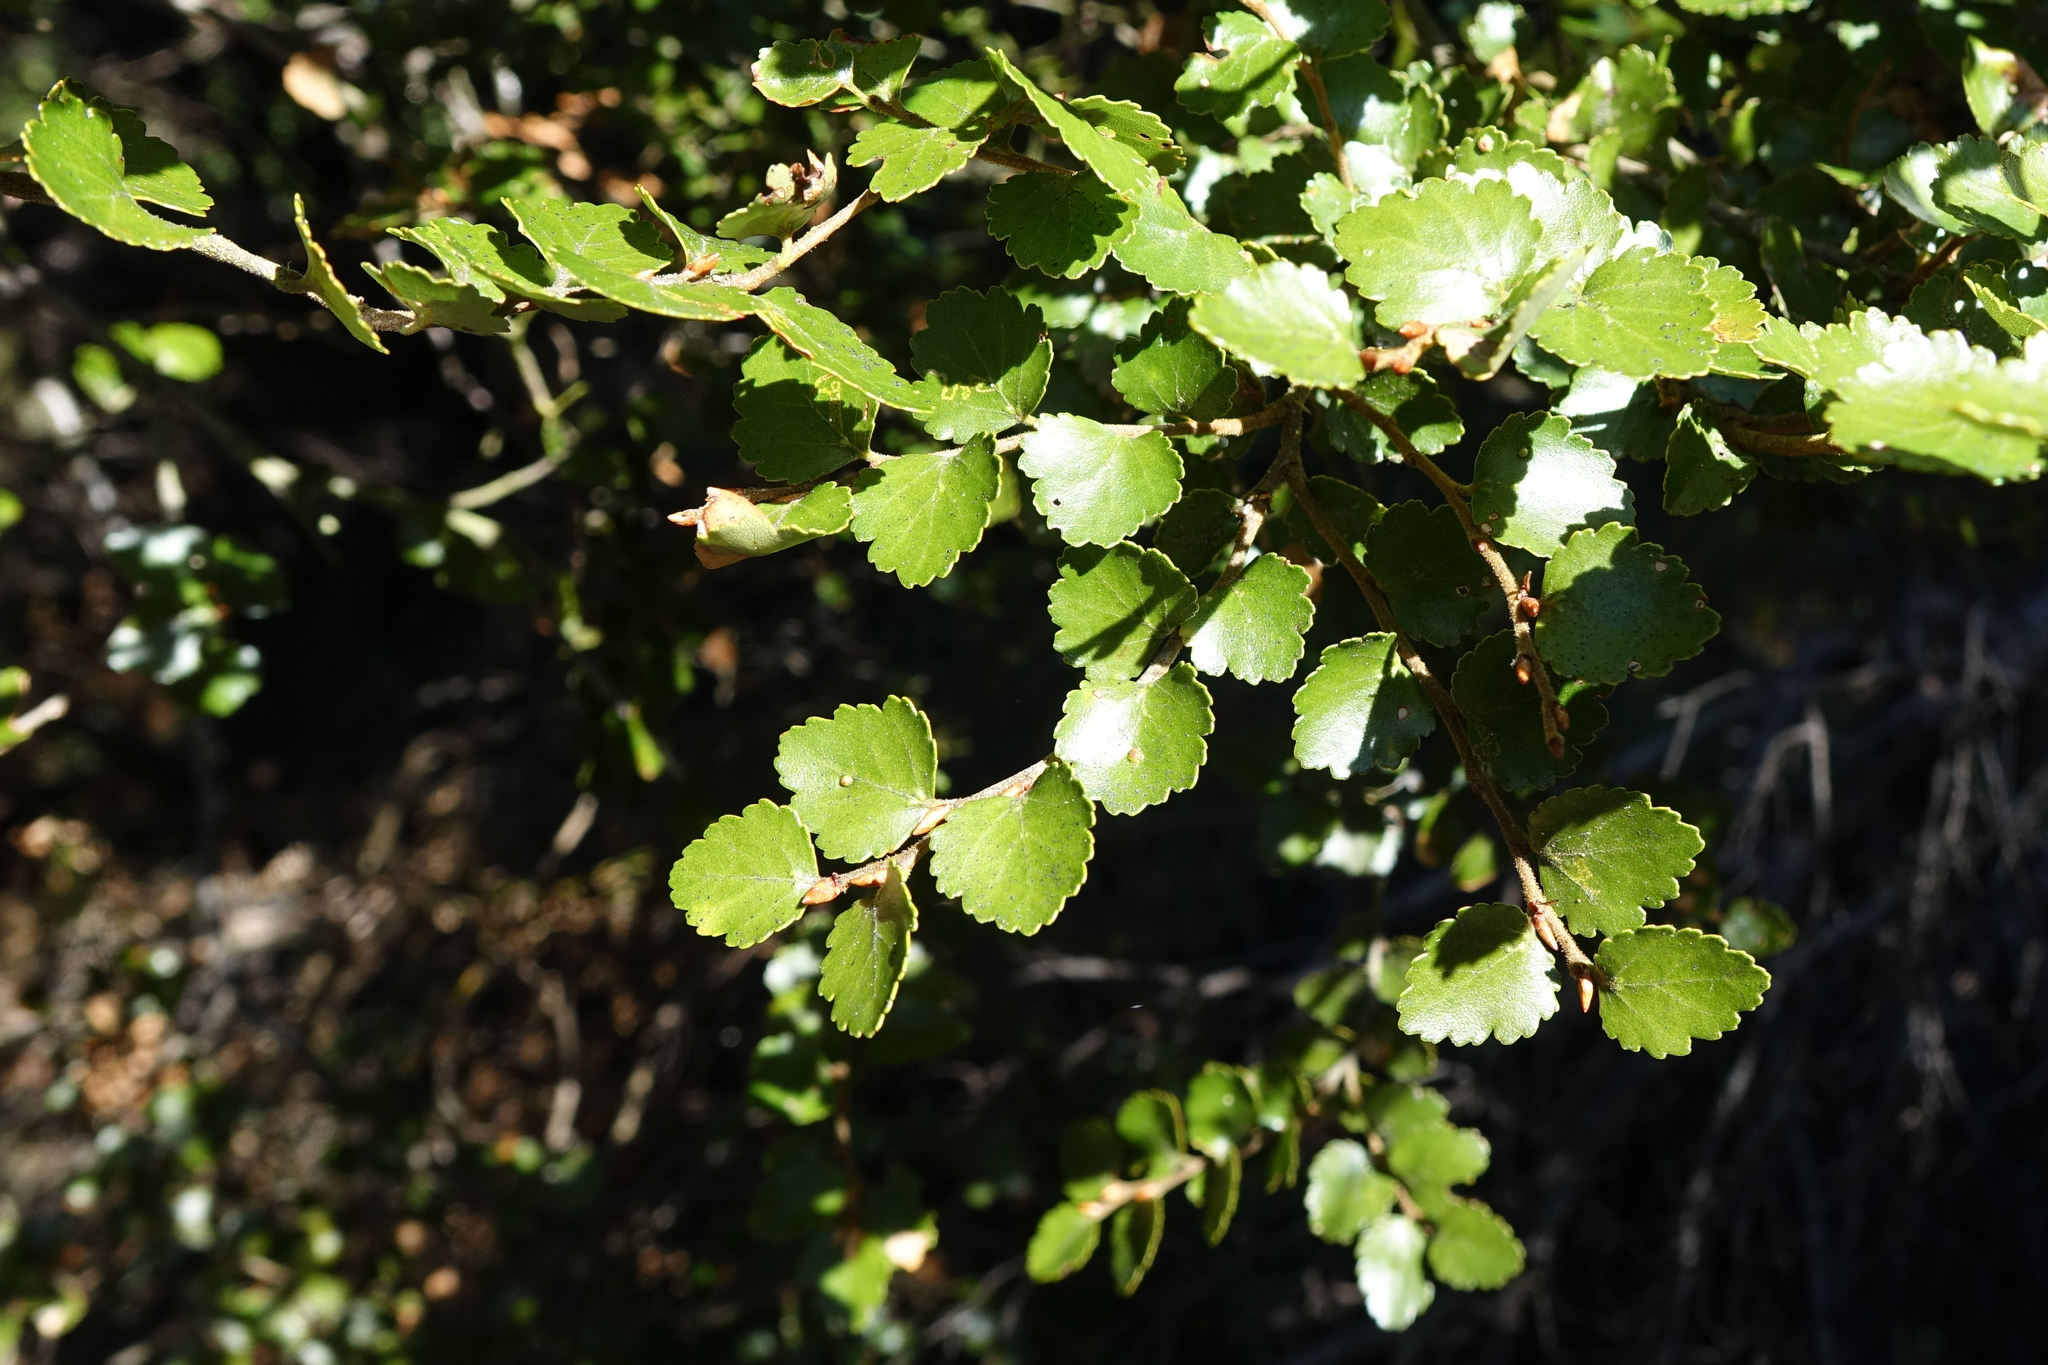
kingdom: Plantae
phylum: Tracheophyta
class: Magnoliopsida
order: Fagales
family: Nothofagaceae
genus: Nothofagus
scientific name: Nothofagus menziesii
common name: Silver beech
